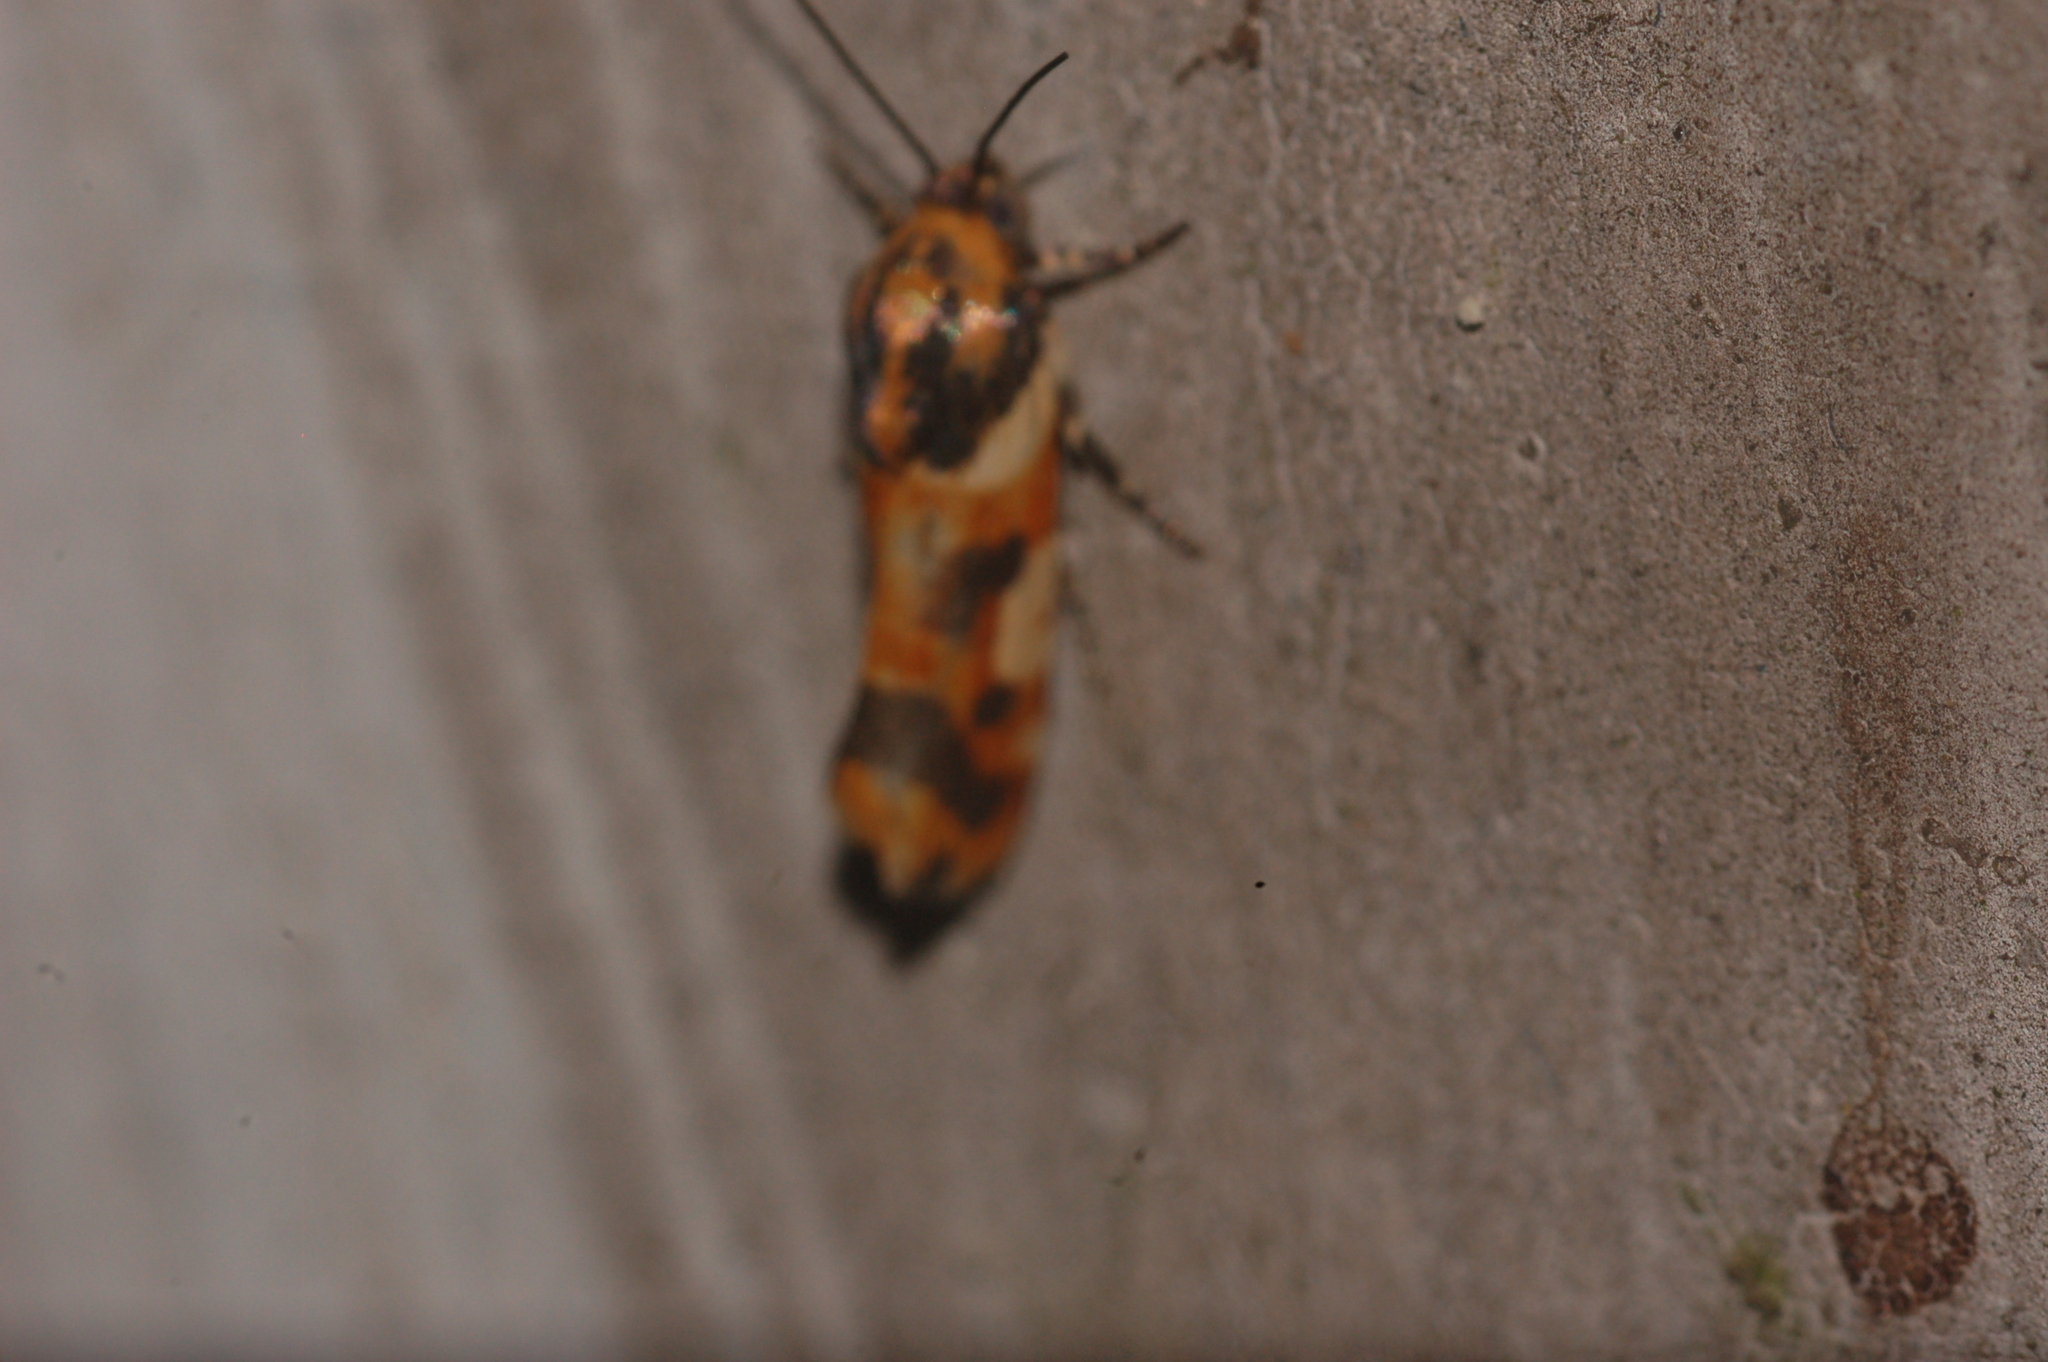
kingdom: Animalia
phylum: Arthropoda
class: Insecta
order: Lepidoptera
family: Noctuidae
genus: Acontia
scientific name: Acontia dama
